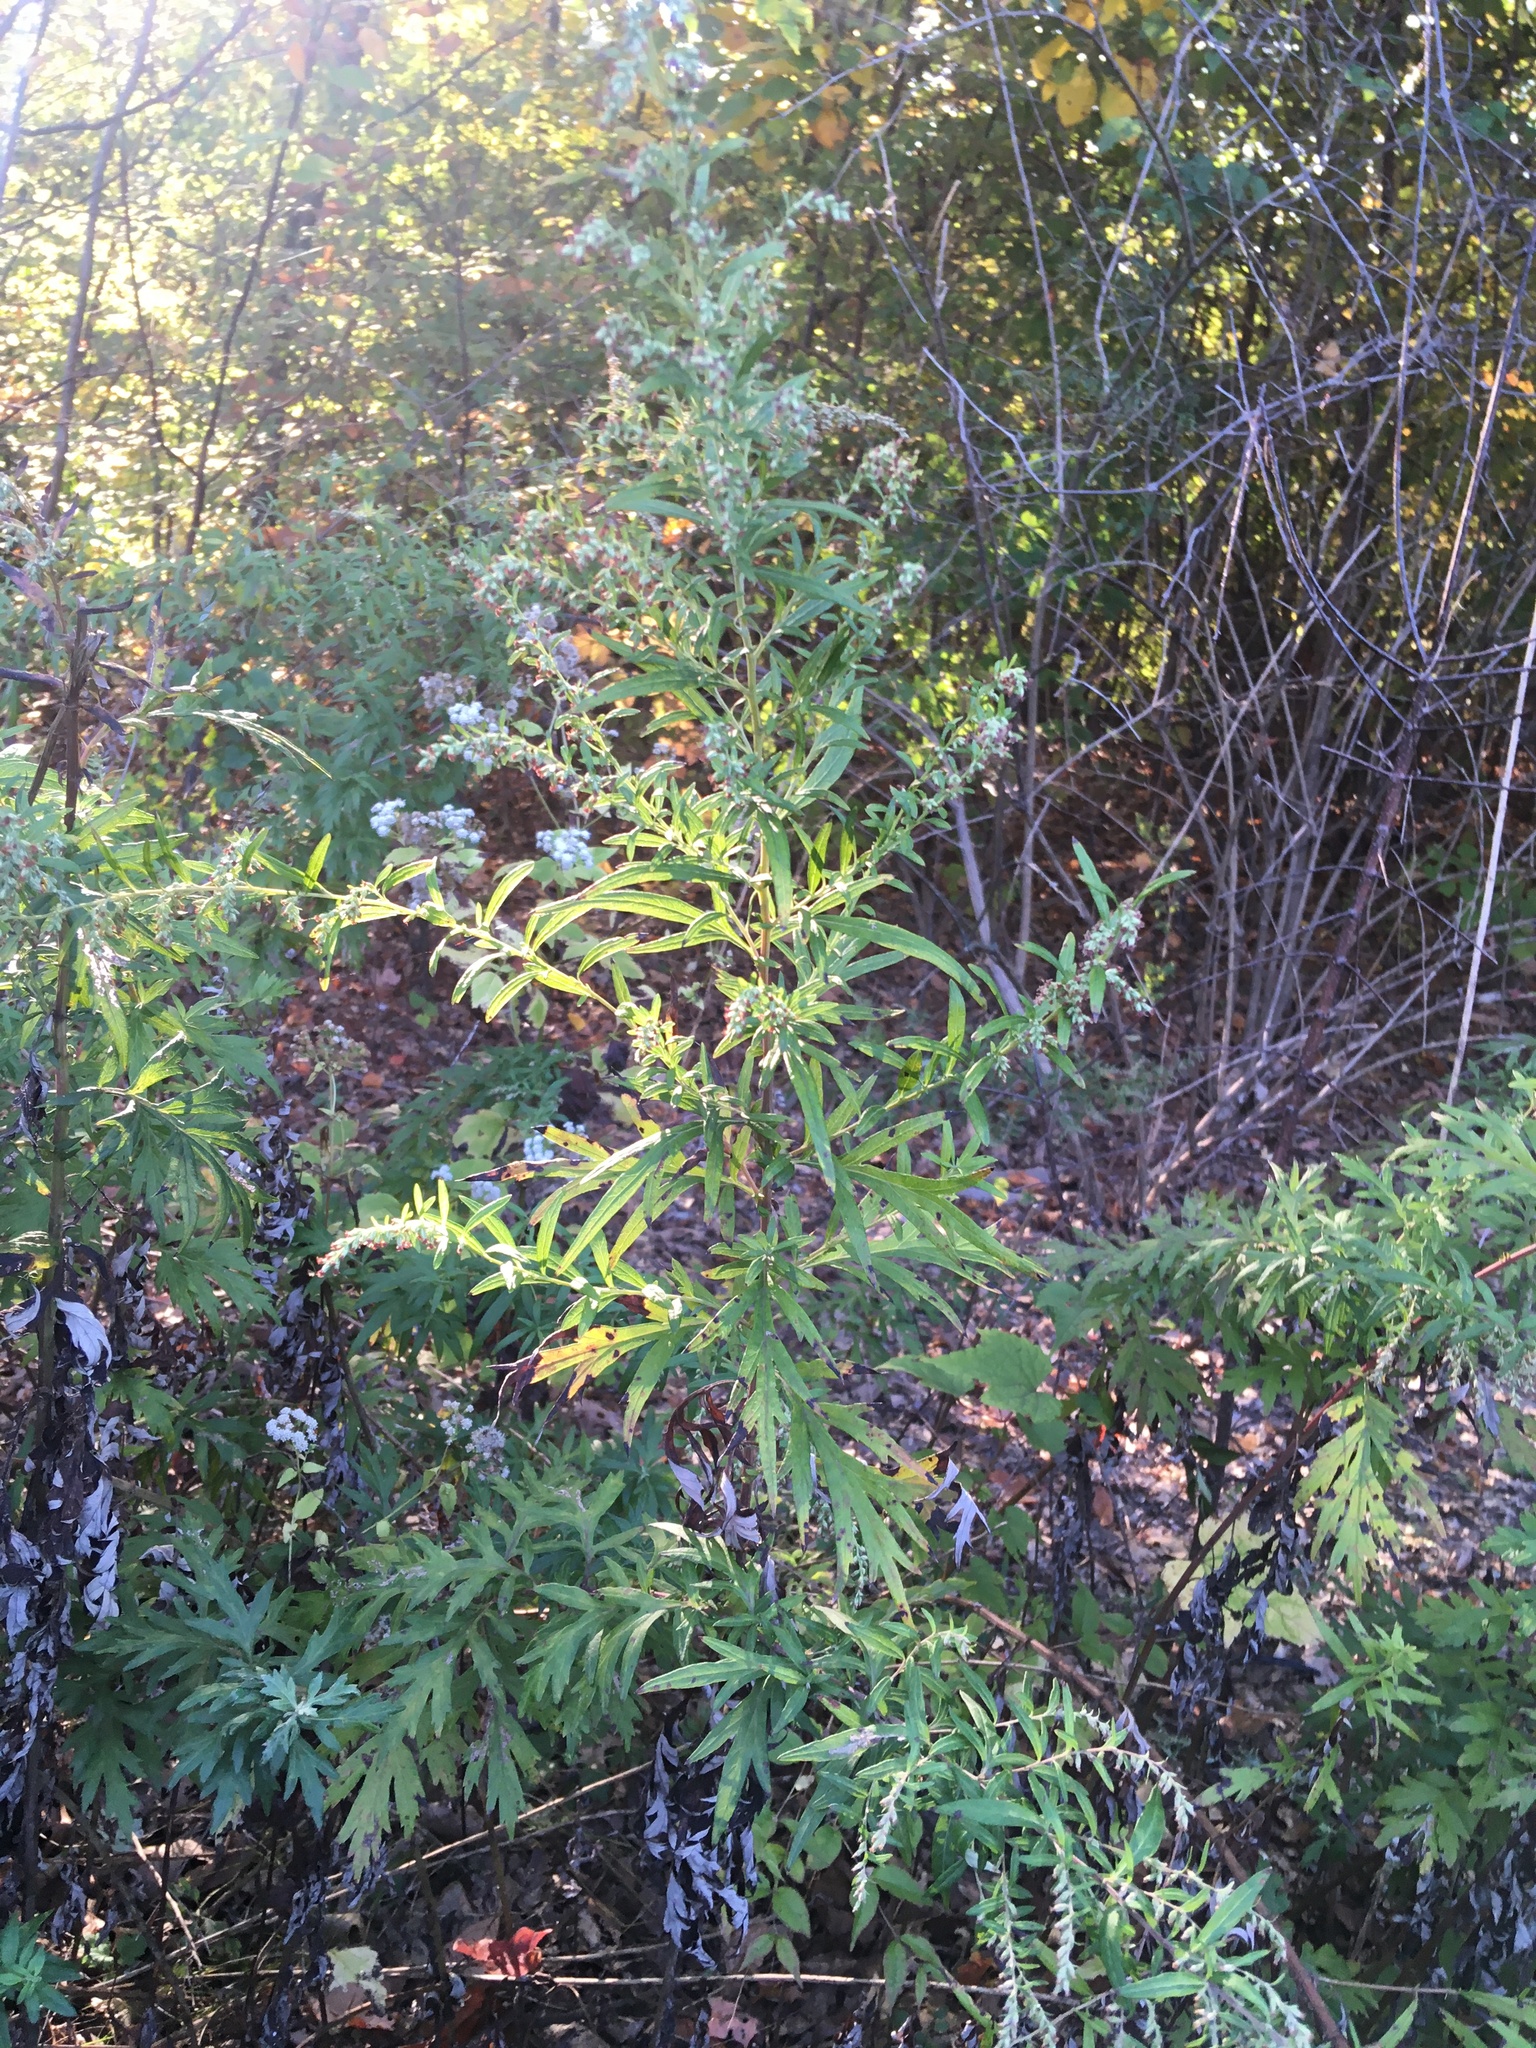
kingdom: Plantae
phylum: Tracheophyta
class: Magnoliopsida
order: Asterales
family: Asteraceae
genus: Artemisia
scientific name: Artemisia vulgaris
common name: Mugwort
